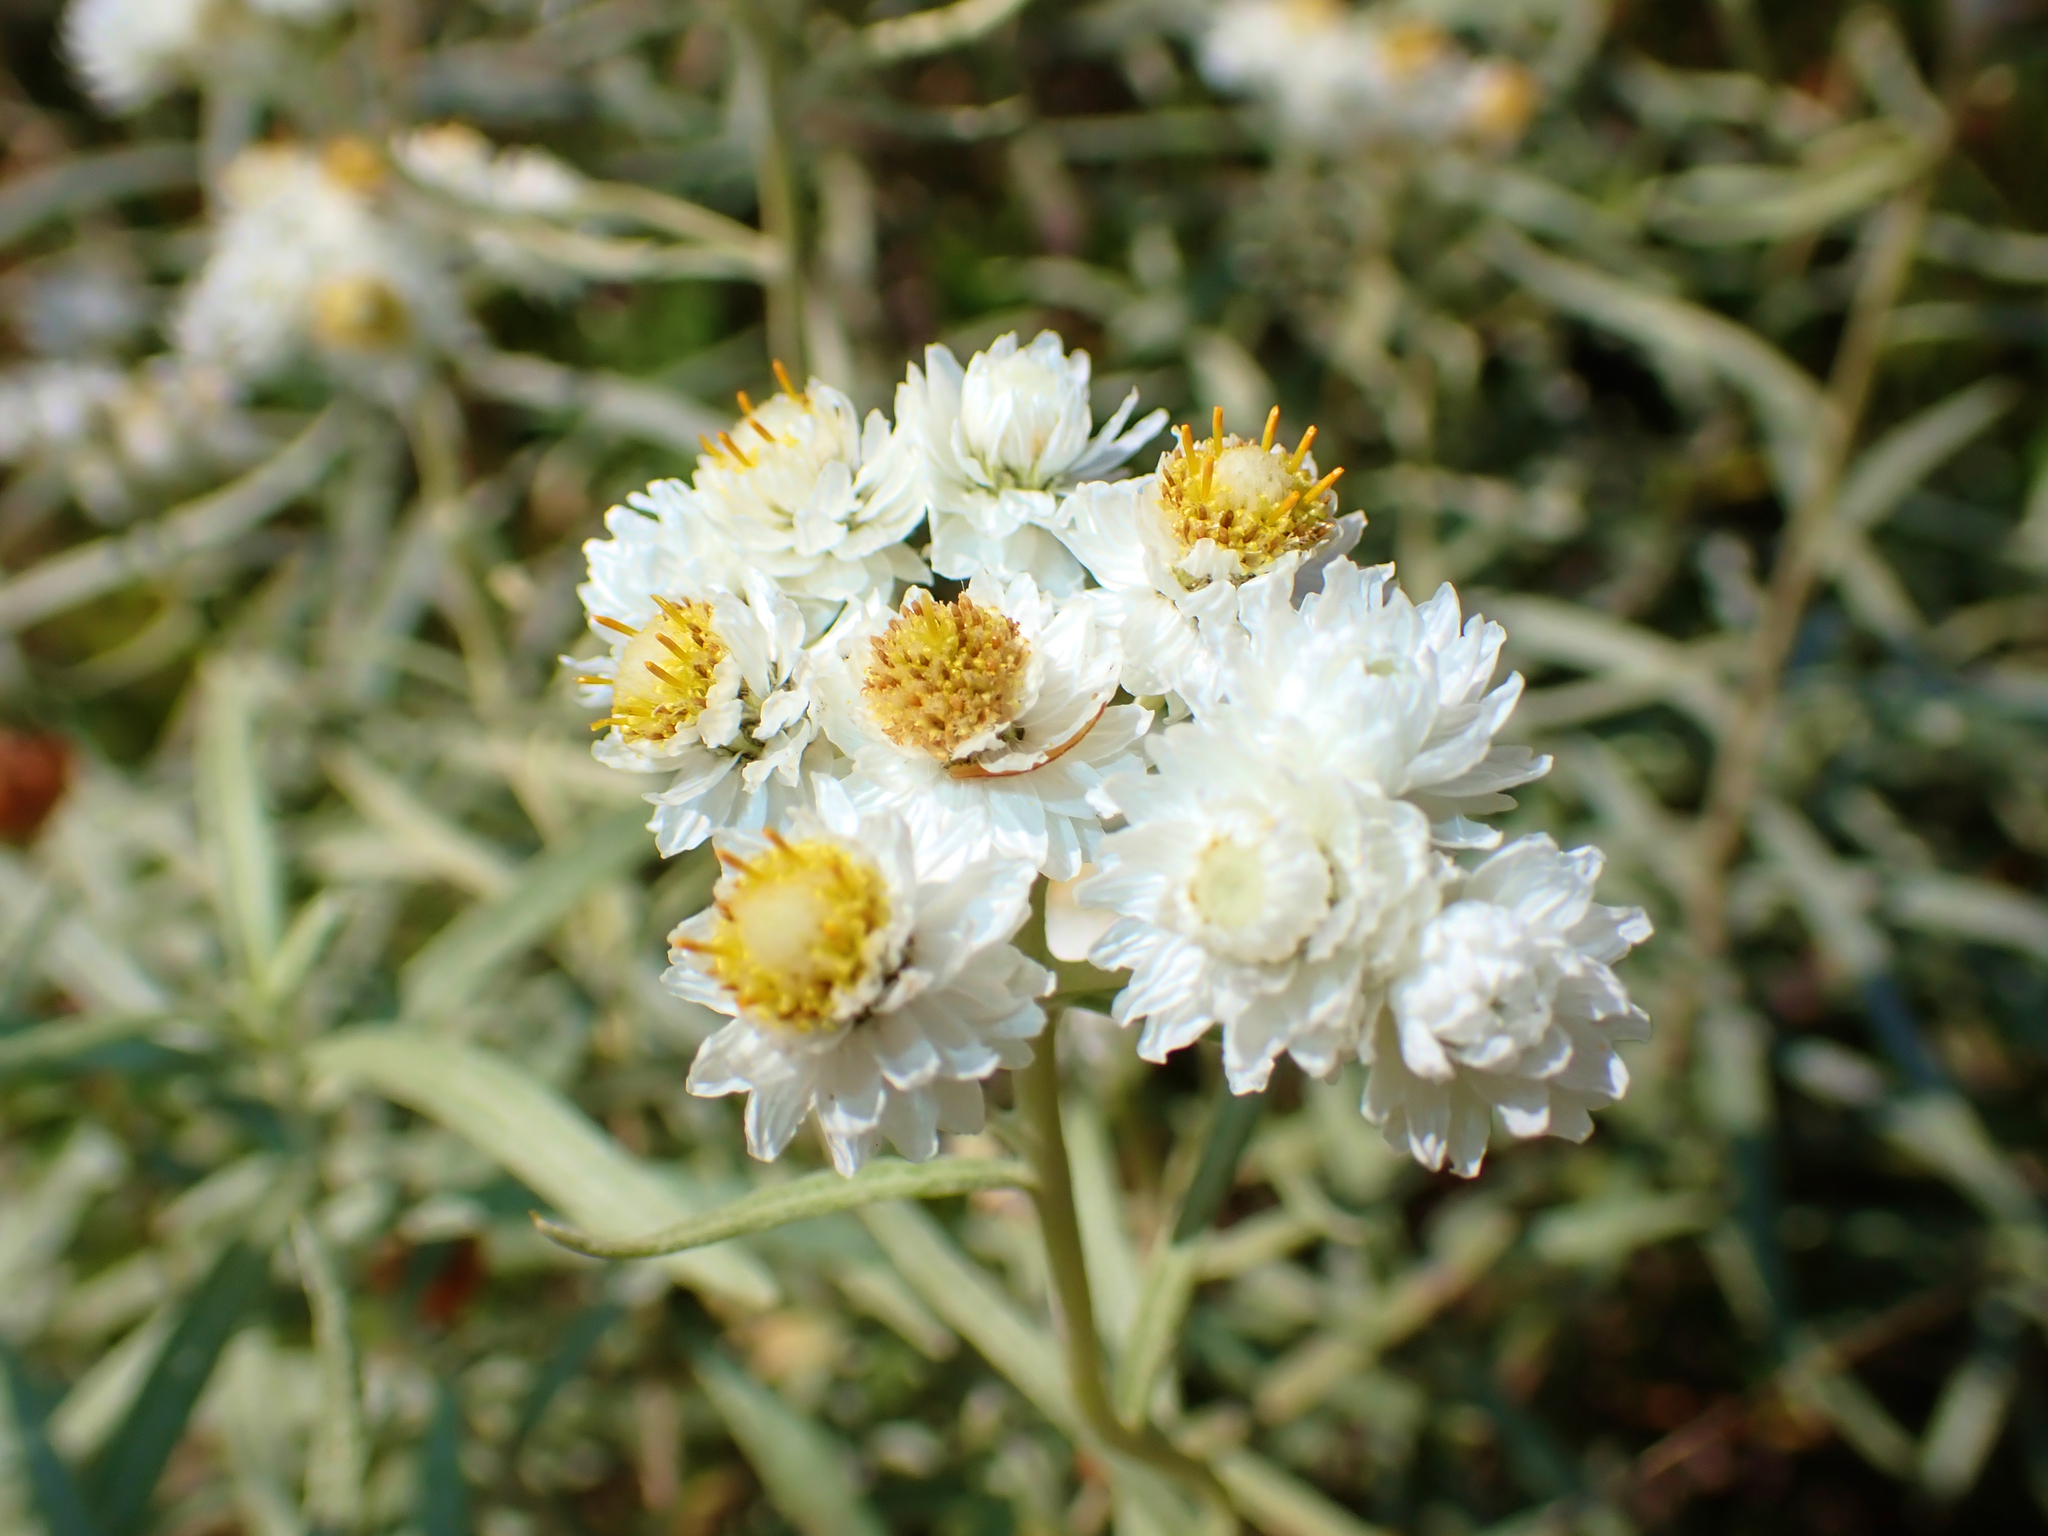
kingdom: Plantae
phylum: Tracheophyta
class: Magnoliopsida
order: Asterales
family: Asteraceae
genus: Anaphalis
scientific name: Anaphalis margaritacea
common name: Pearly everlasting
